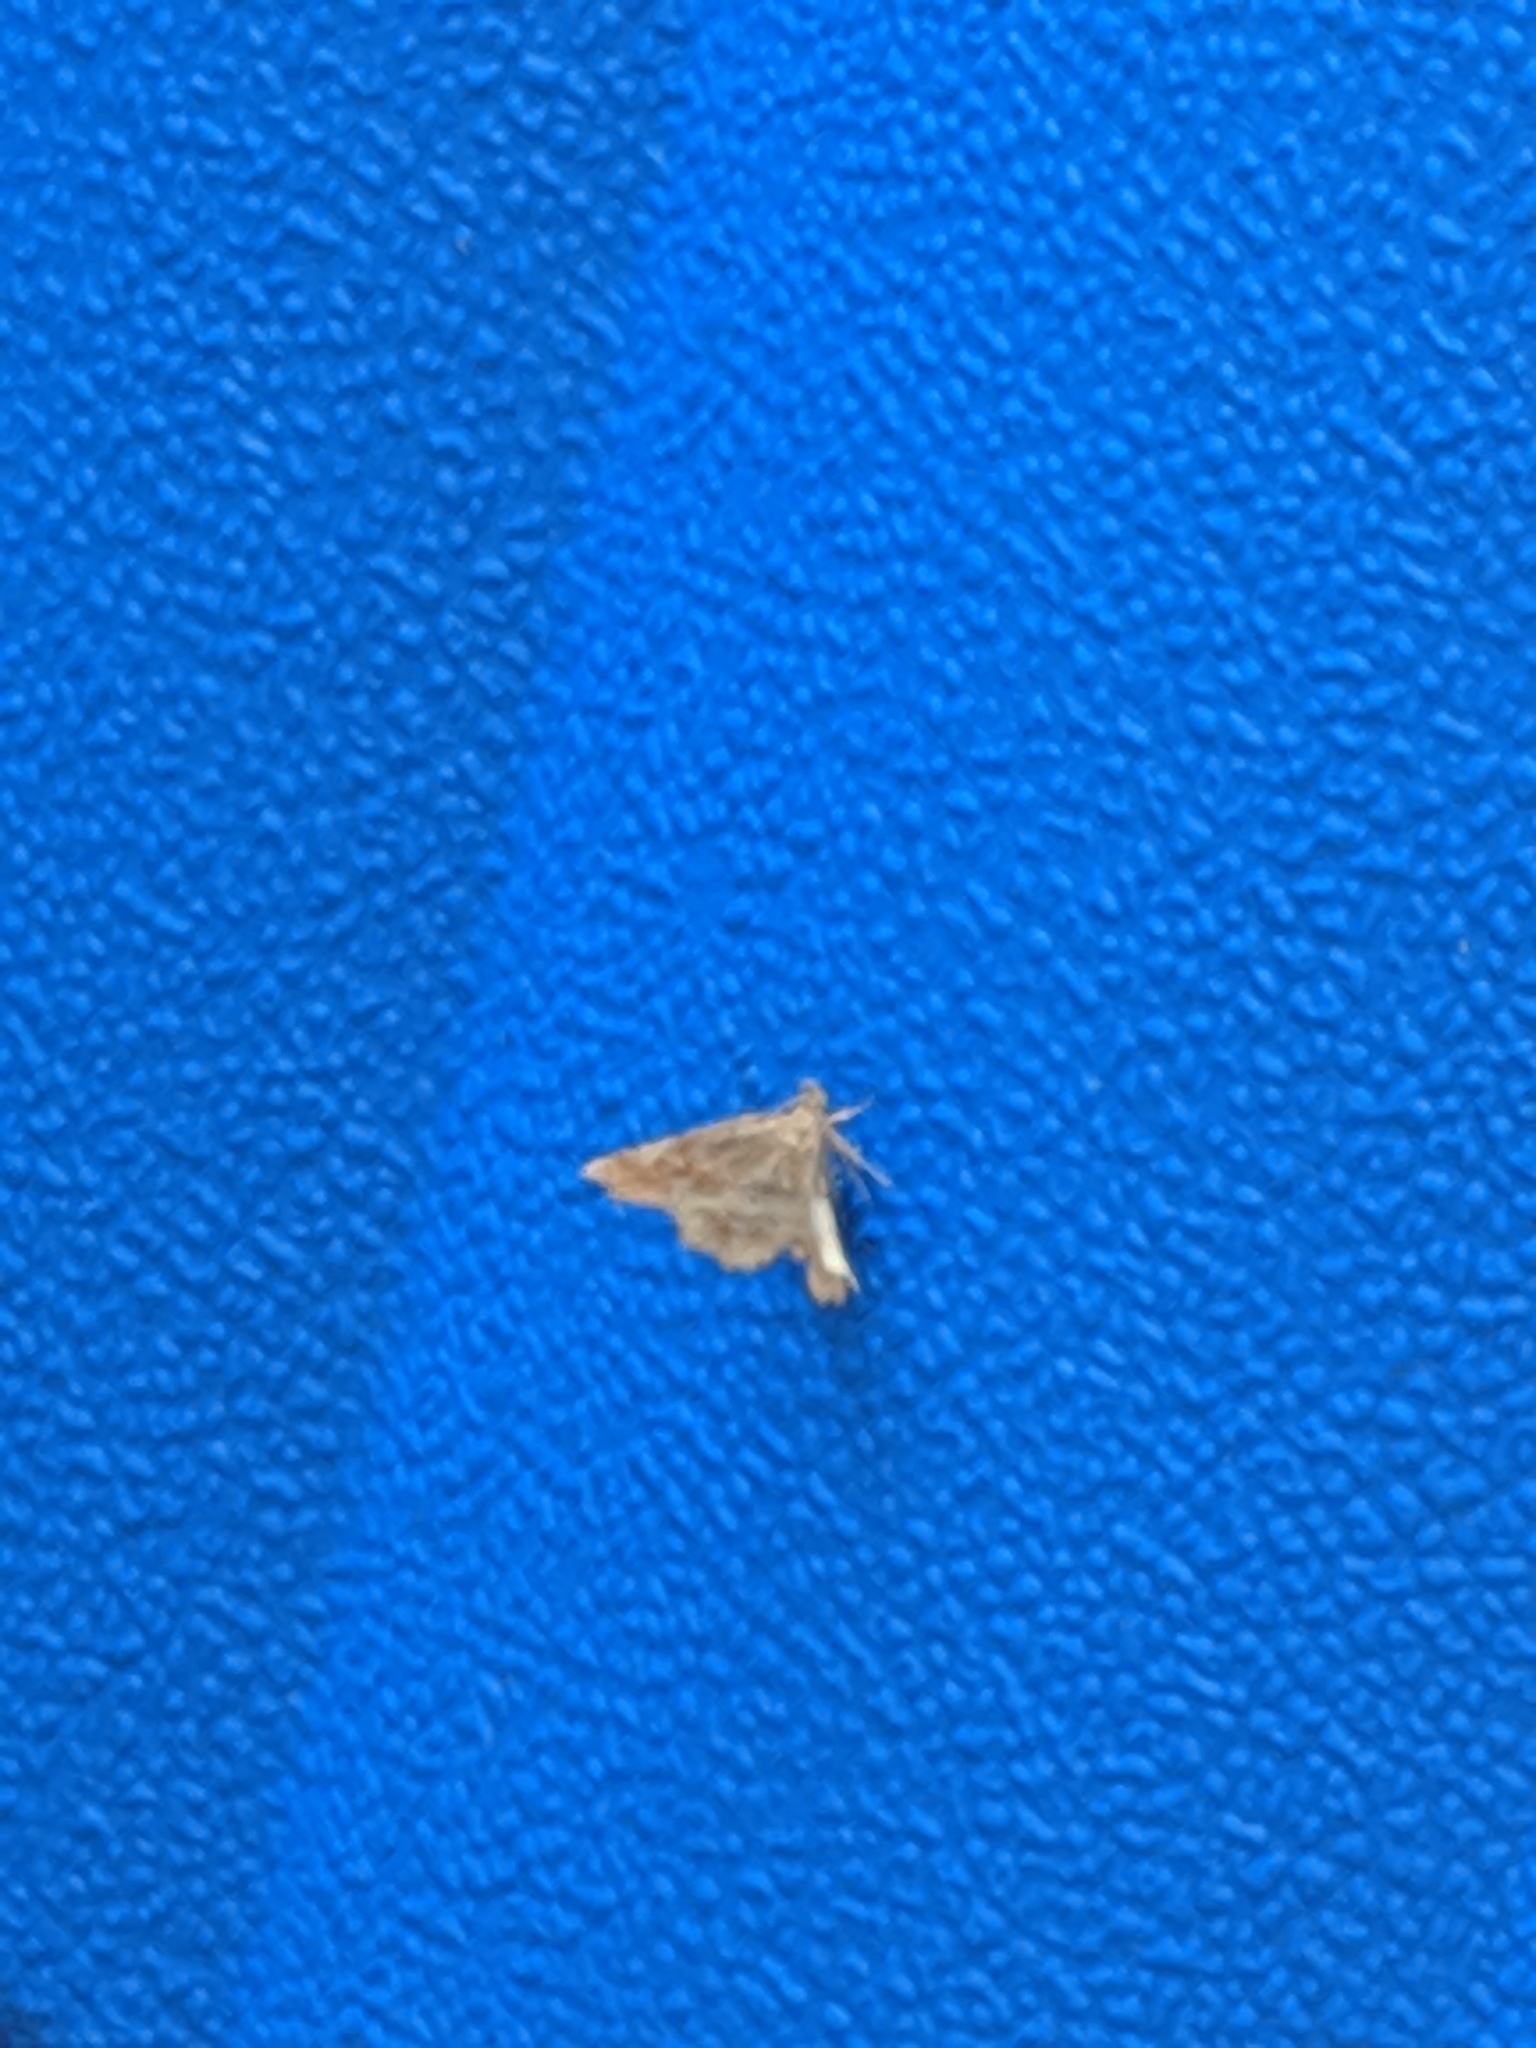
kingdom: Animalia
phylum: Arthropoda
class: Insecta
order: Lepidoptera
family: Erebidae
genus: Pangrapta
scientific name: Pangrapta decoralis
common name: Decorated owlet
